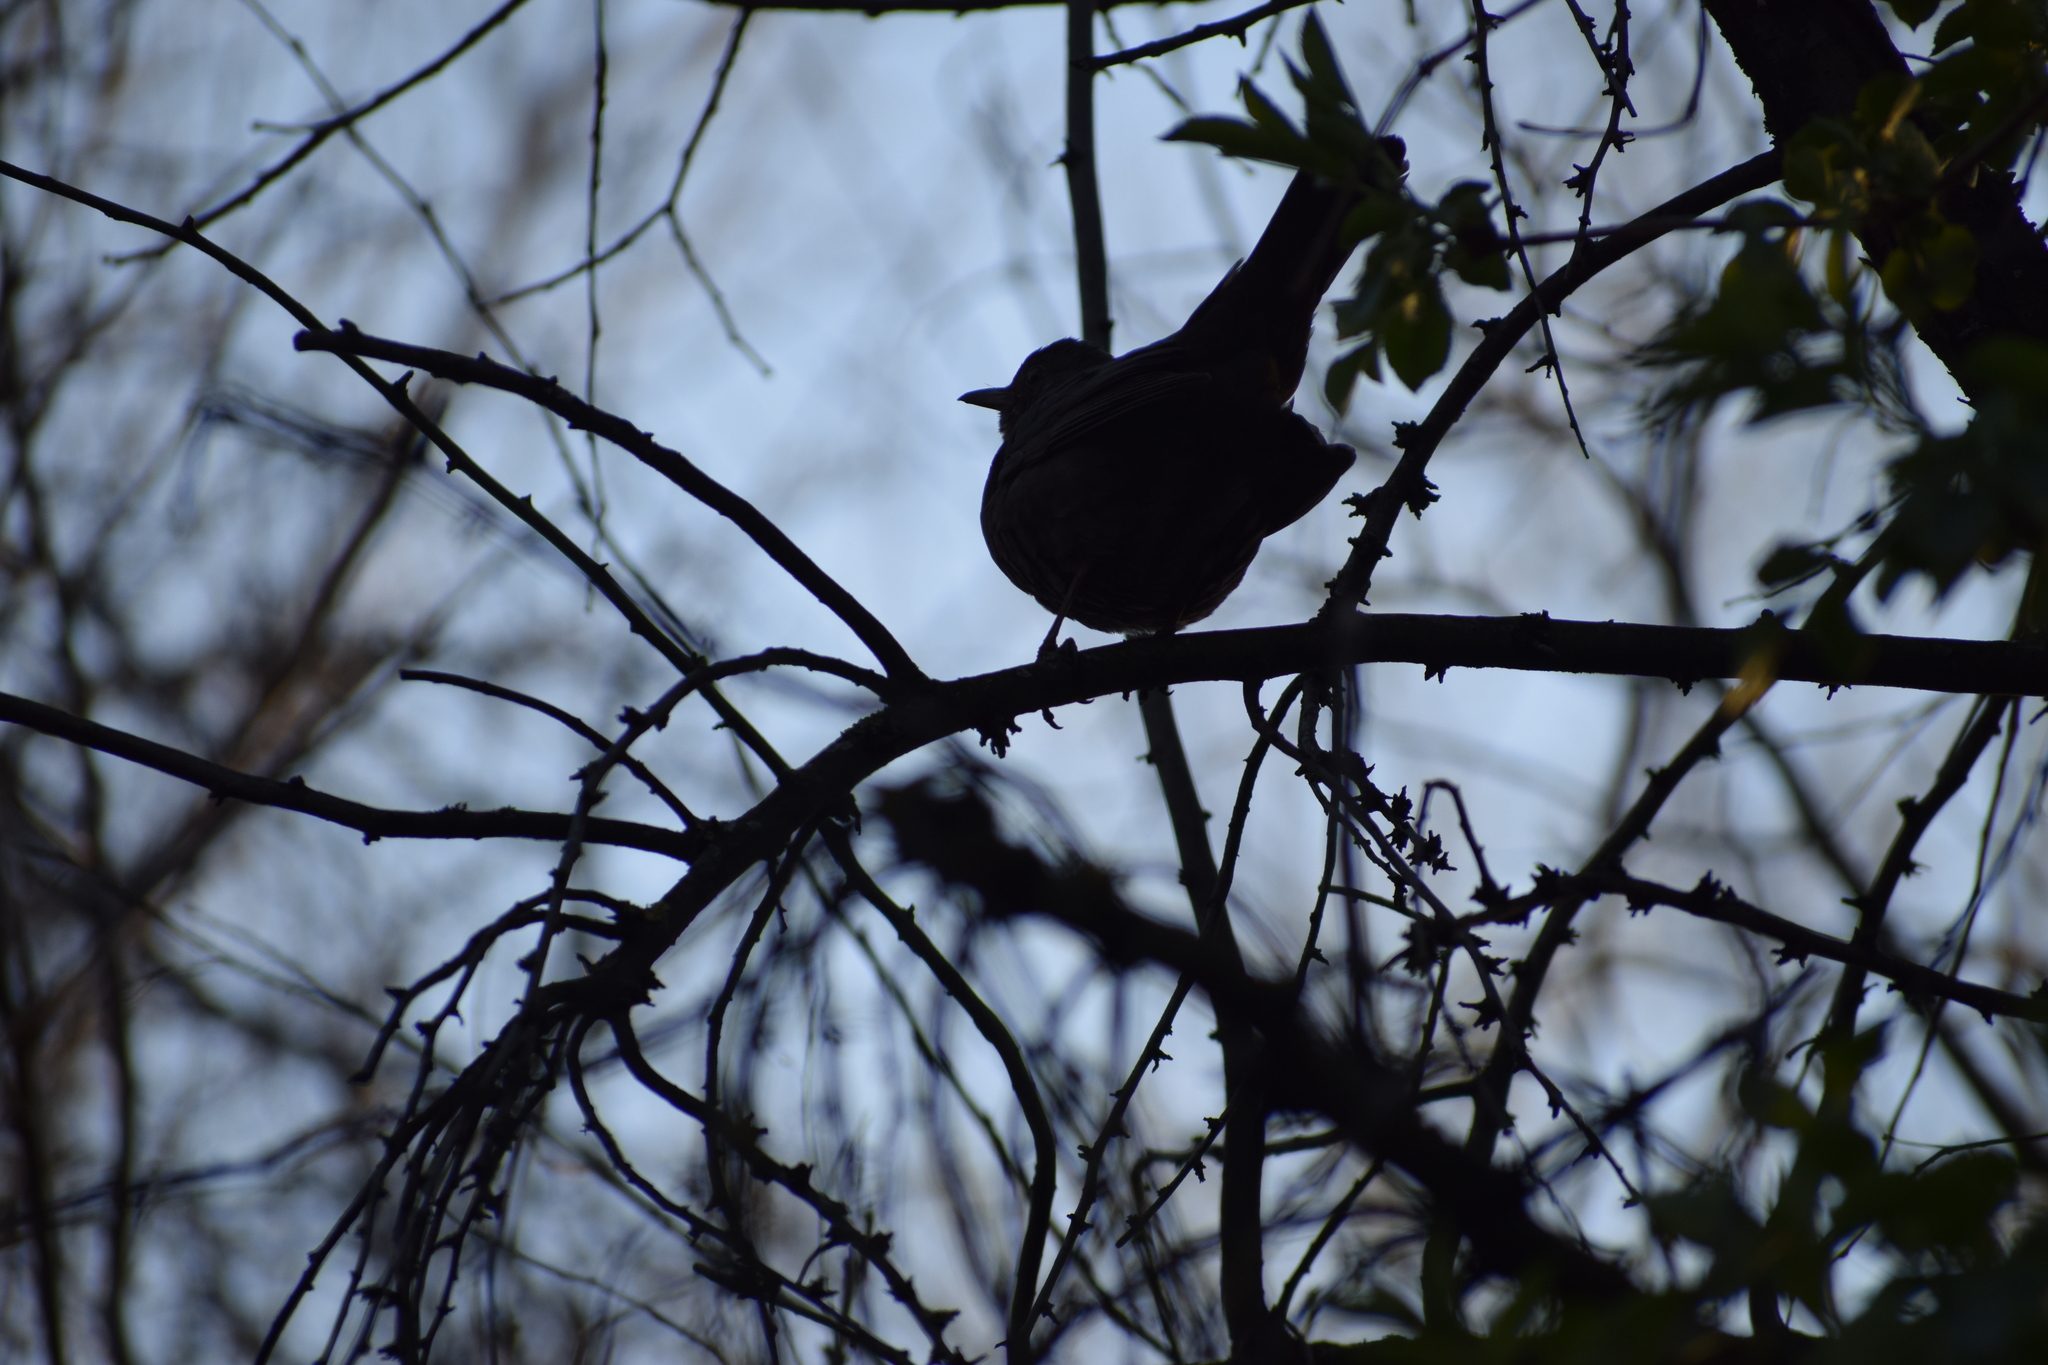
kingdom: Animalia
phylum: Chordata
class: Aves
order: Passeriformes
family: Turdidae
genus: Turdus
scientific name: Turdus merula
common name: Common blackbird
